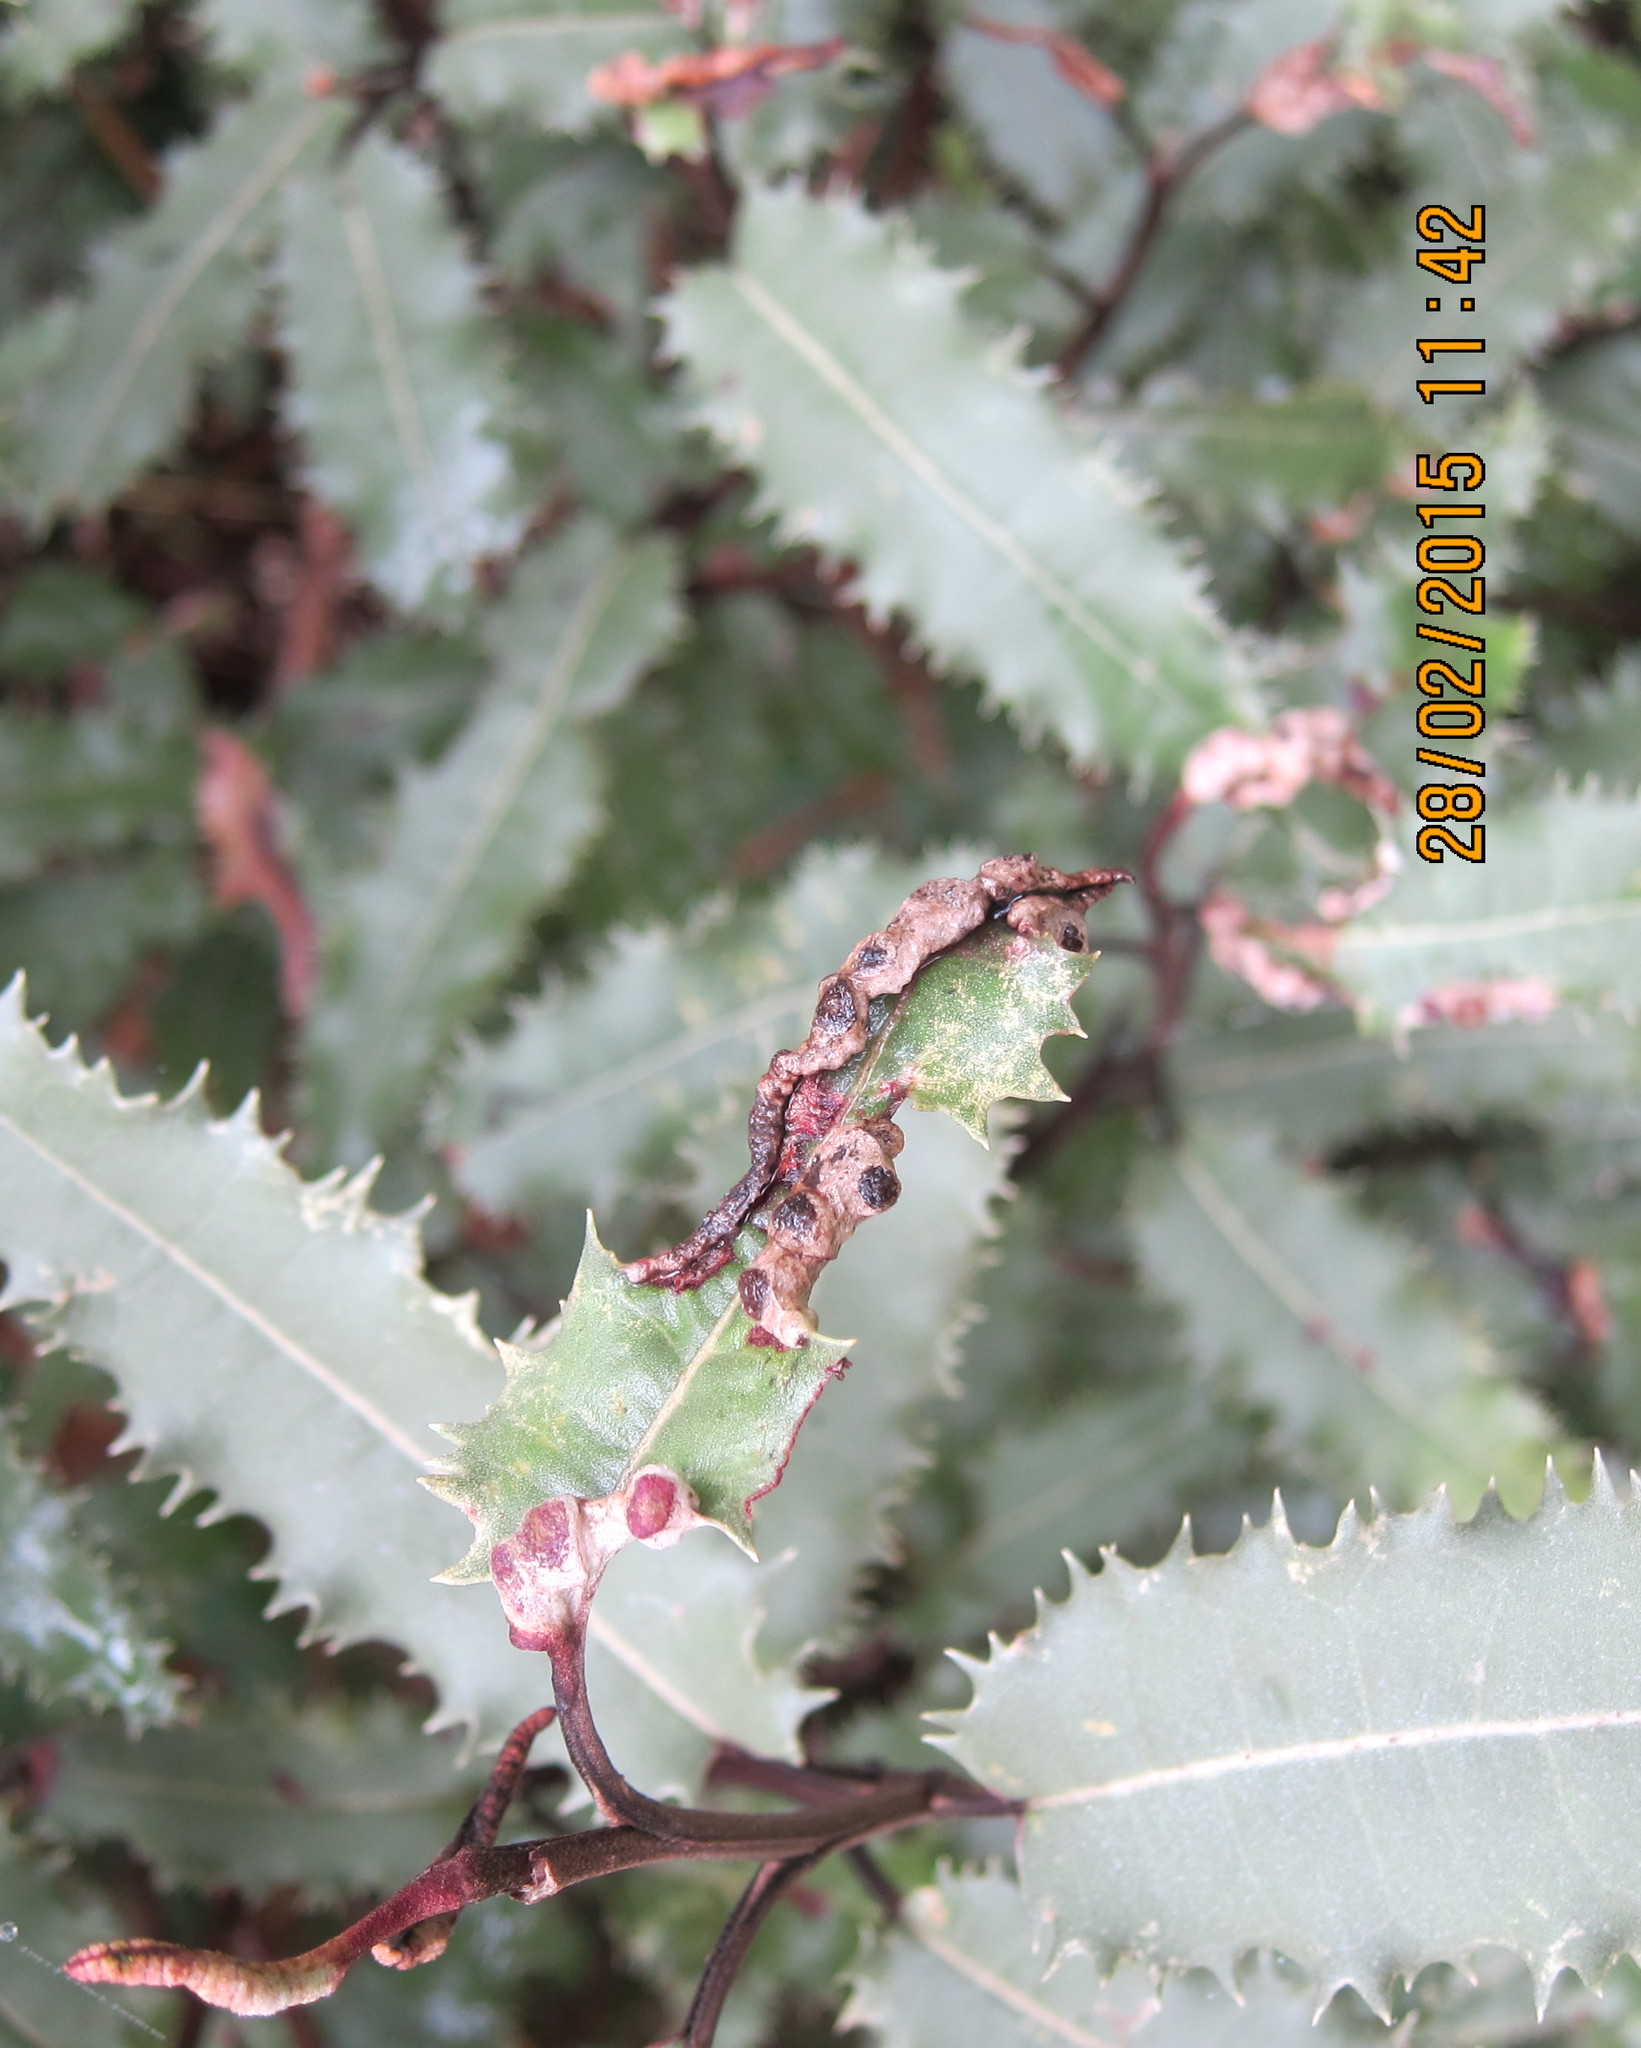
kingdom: Animalia
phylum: Arthropoda
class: Insecta
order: Hemiptera
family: Triozidae
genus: Trioza
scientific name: Trioza doryphora
